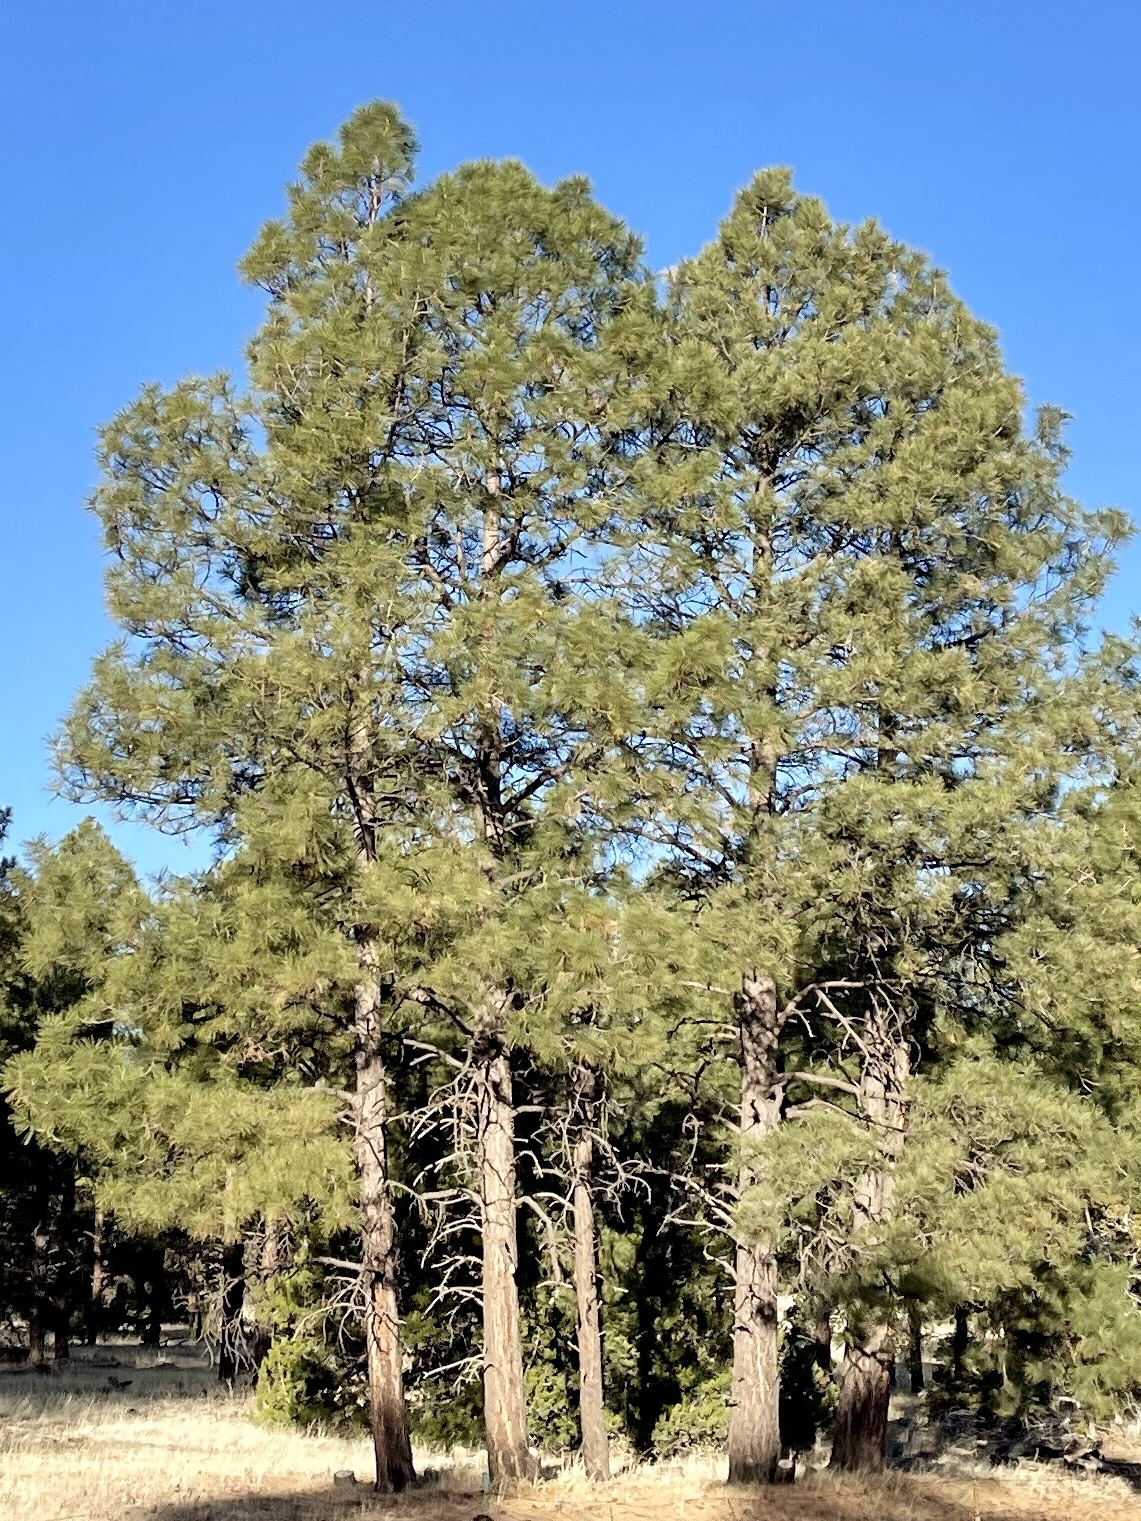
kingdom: Plantae
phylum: Tracheophyta
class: Pinopsida
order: Pinales
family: Pinaceae
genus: Pinus
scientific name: Pinus ponderosa
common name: Western yellow-pine
